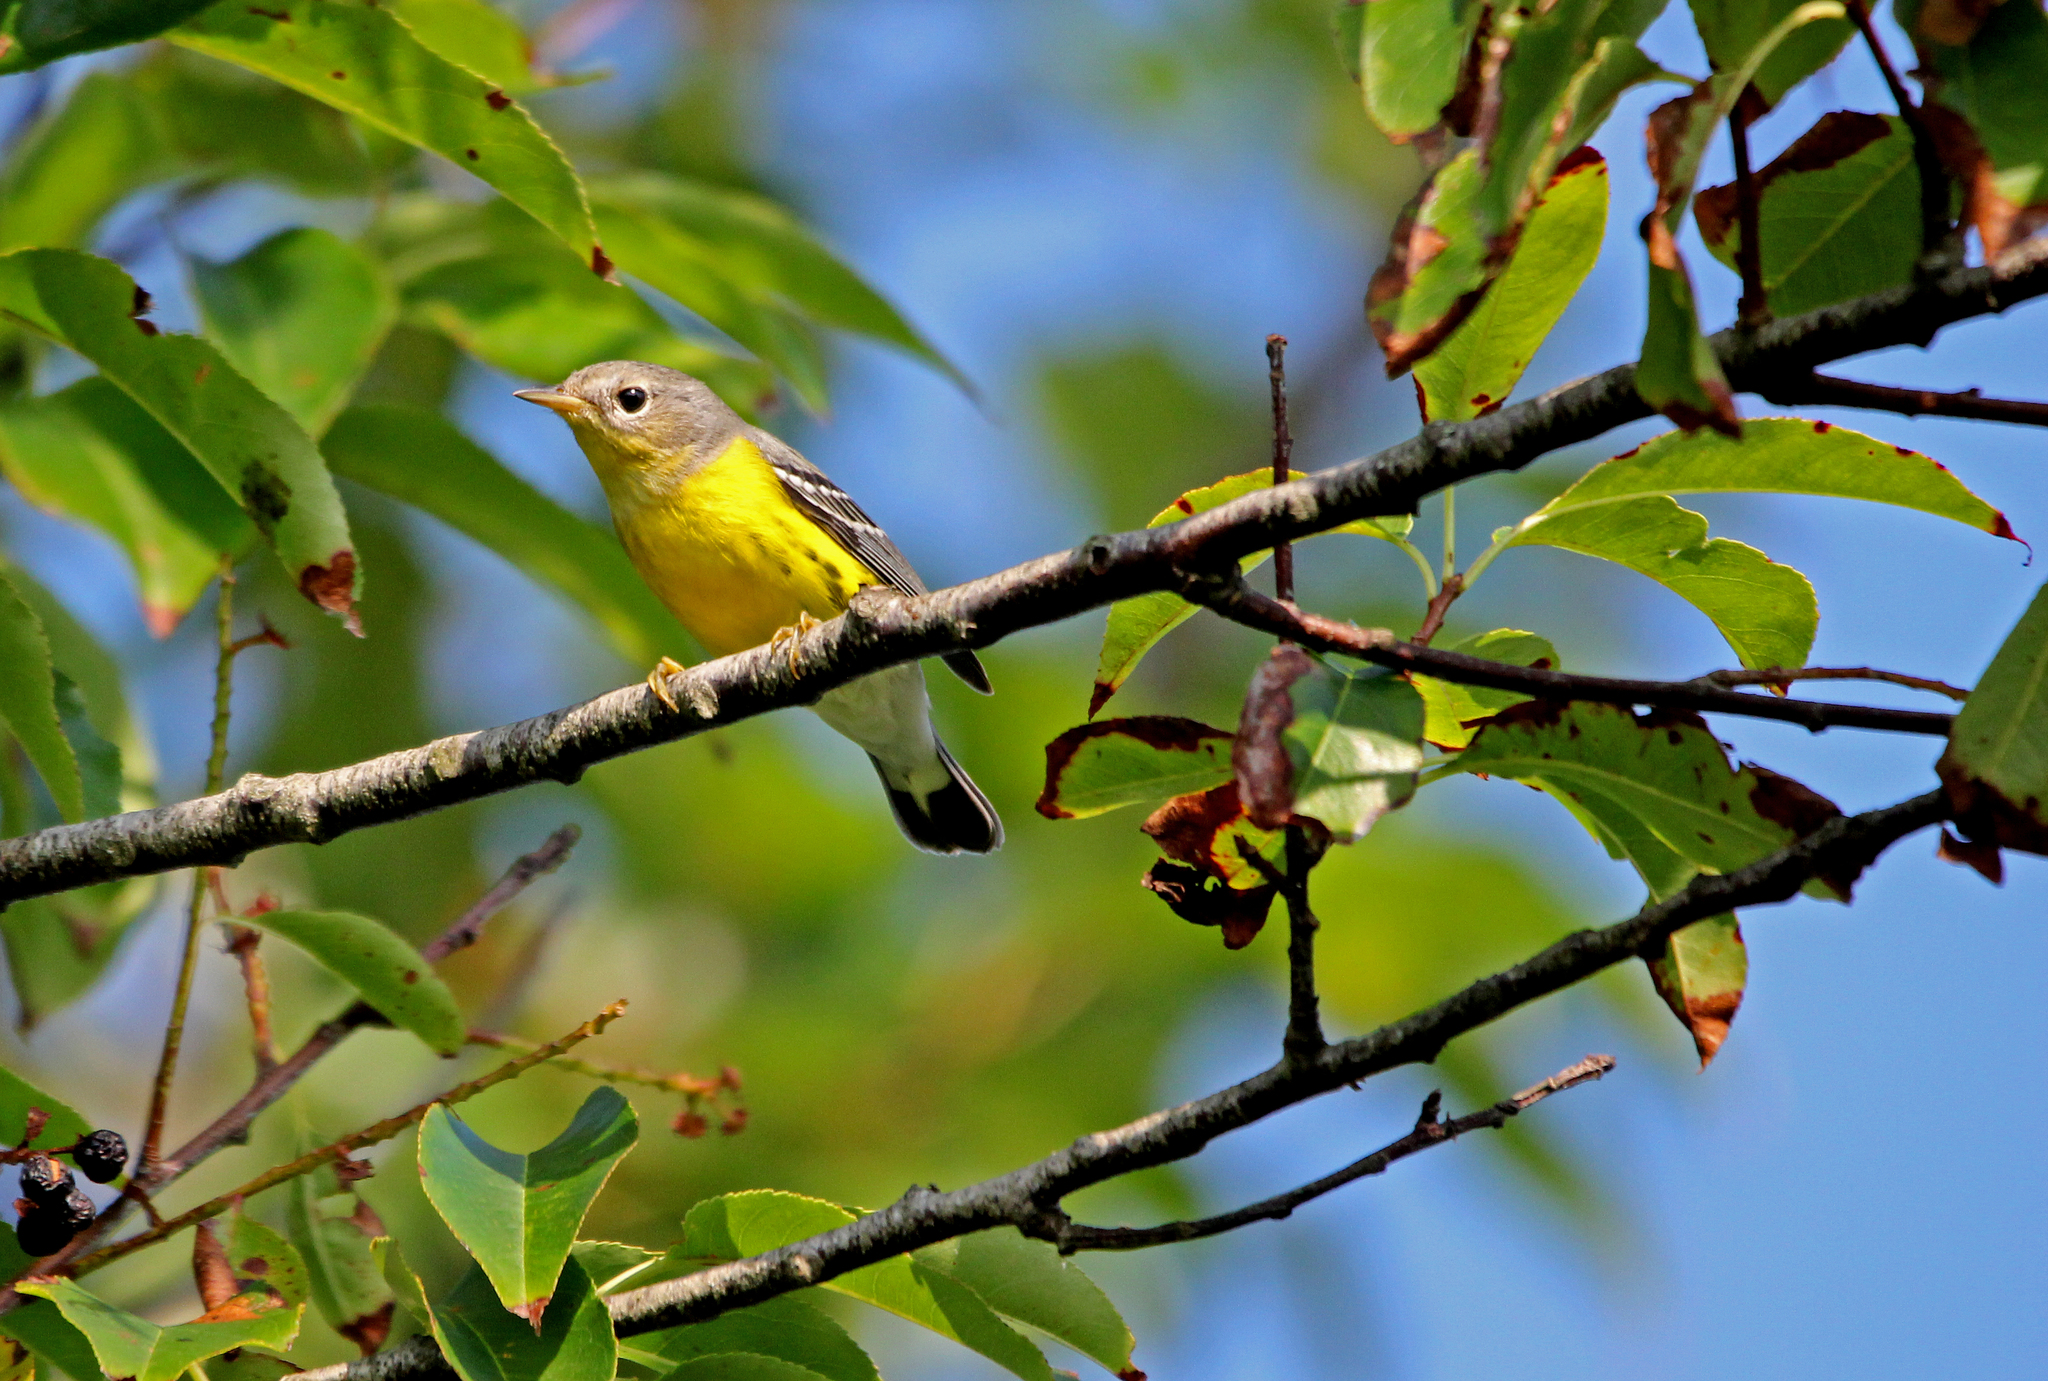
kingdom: Animalia
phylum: Chordata
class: Aves
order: Passeriformes
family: Parulidae
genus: Setophaga
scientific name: Setophaga magnolia
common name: Magnolia warbler
